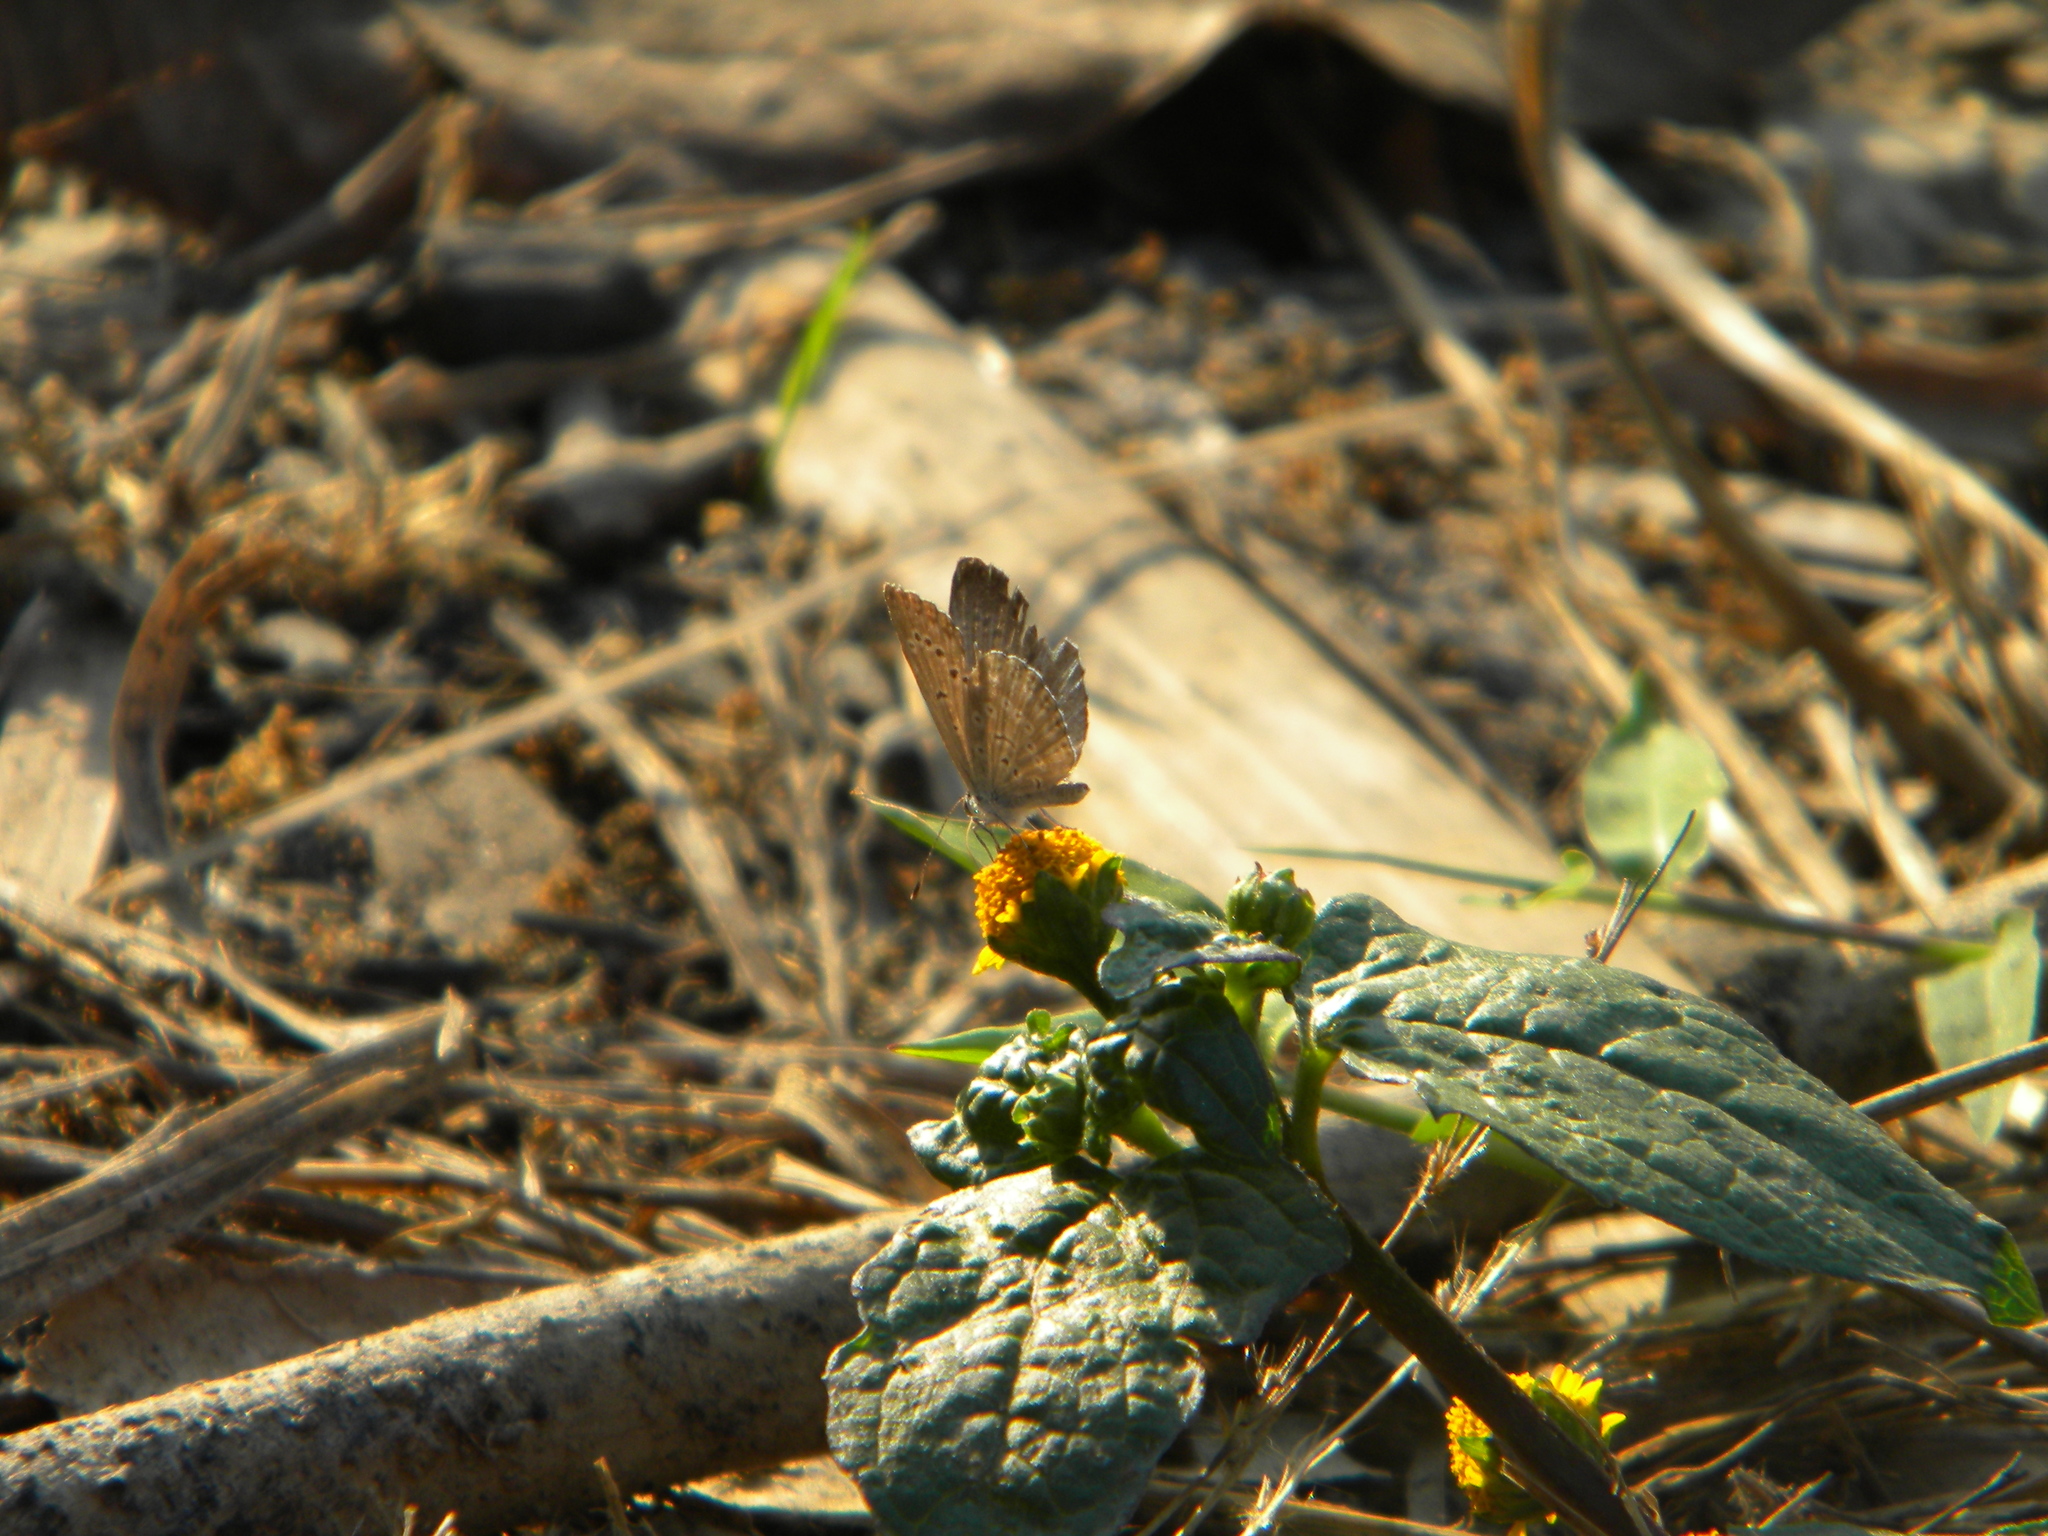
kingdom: Animalia
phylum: Arthropoda
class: Insecta
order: Lepidoptera
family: Lycaenidae
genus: Pseudozizeeria
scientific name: Pseudozizeeria maha
